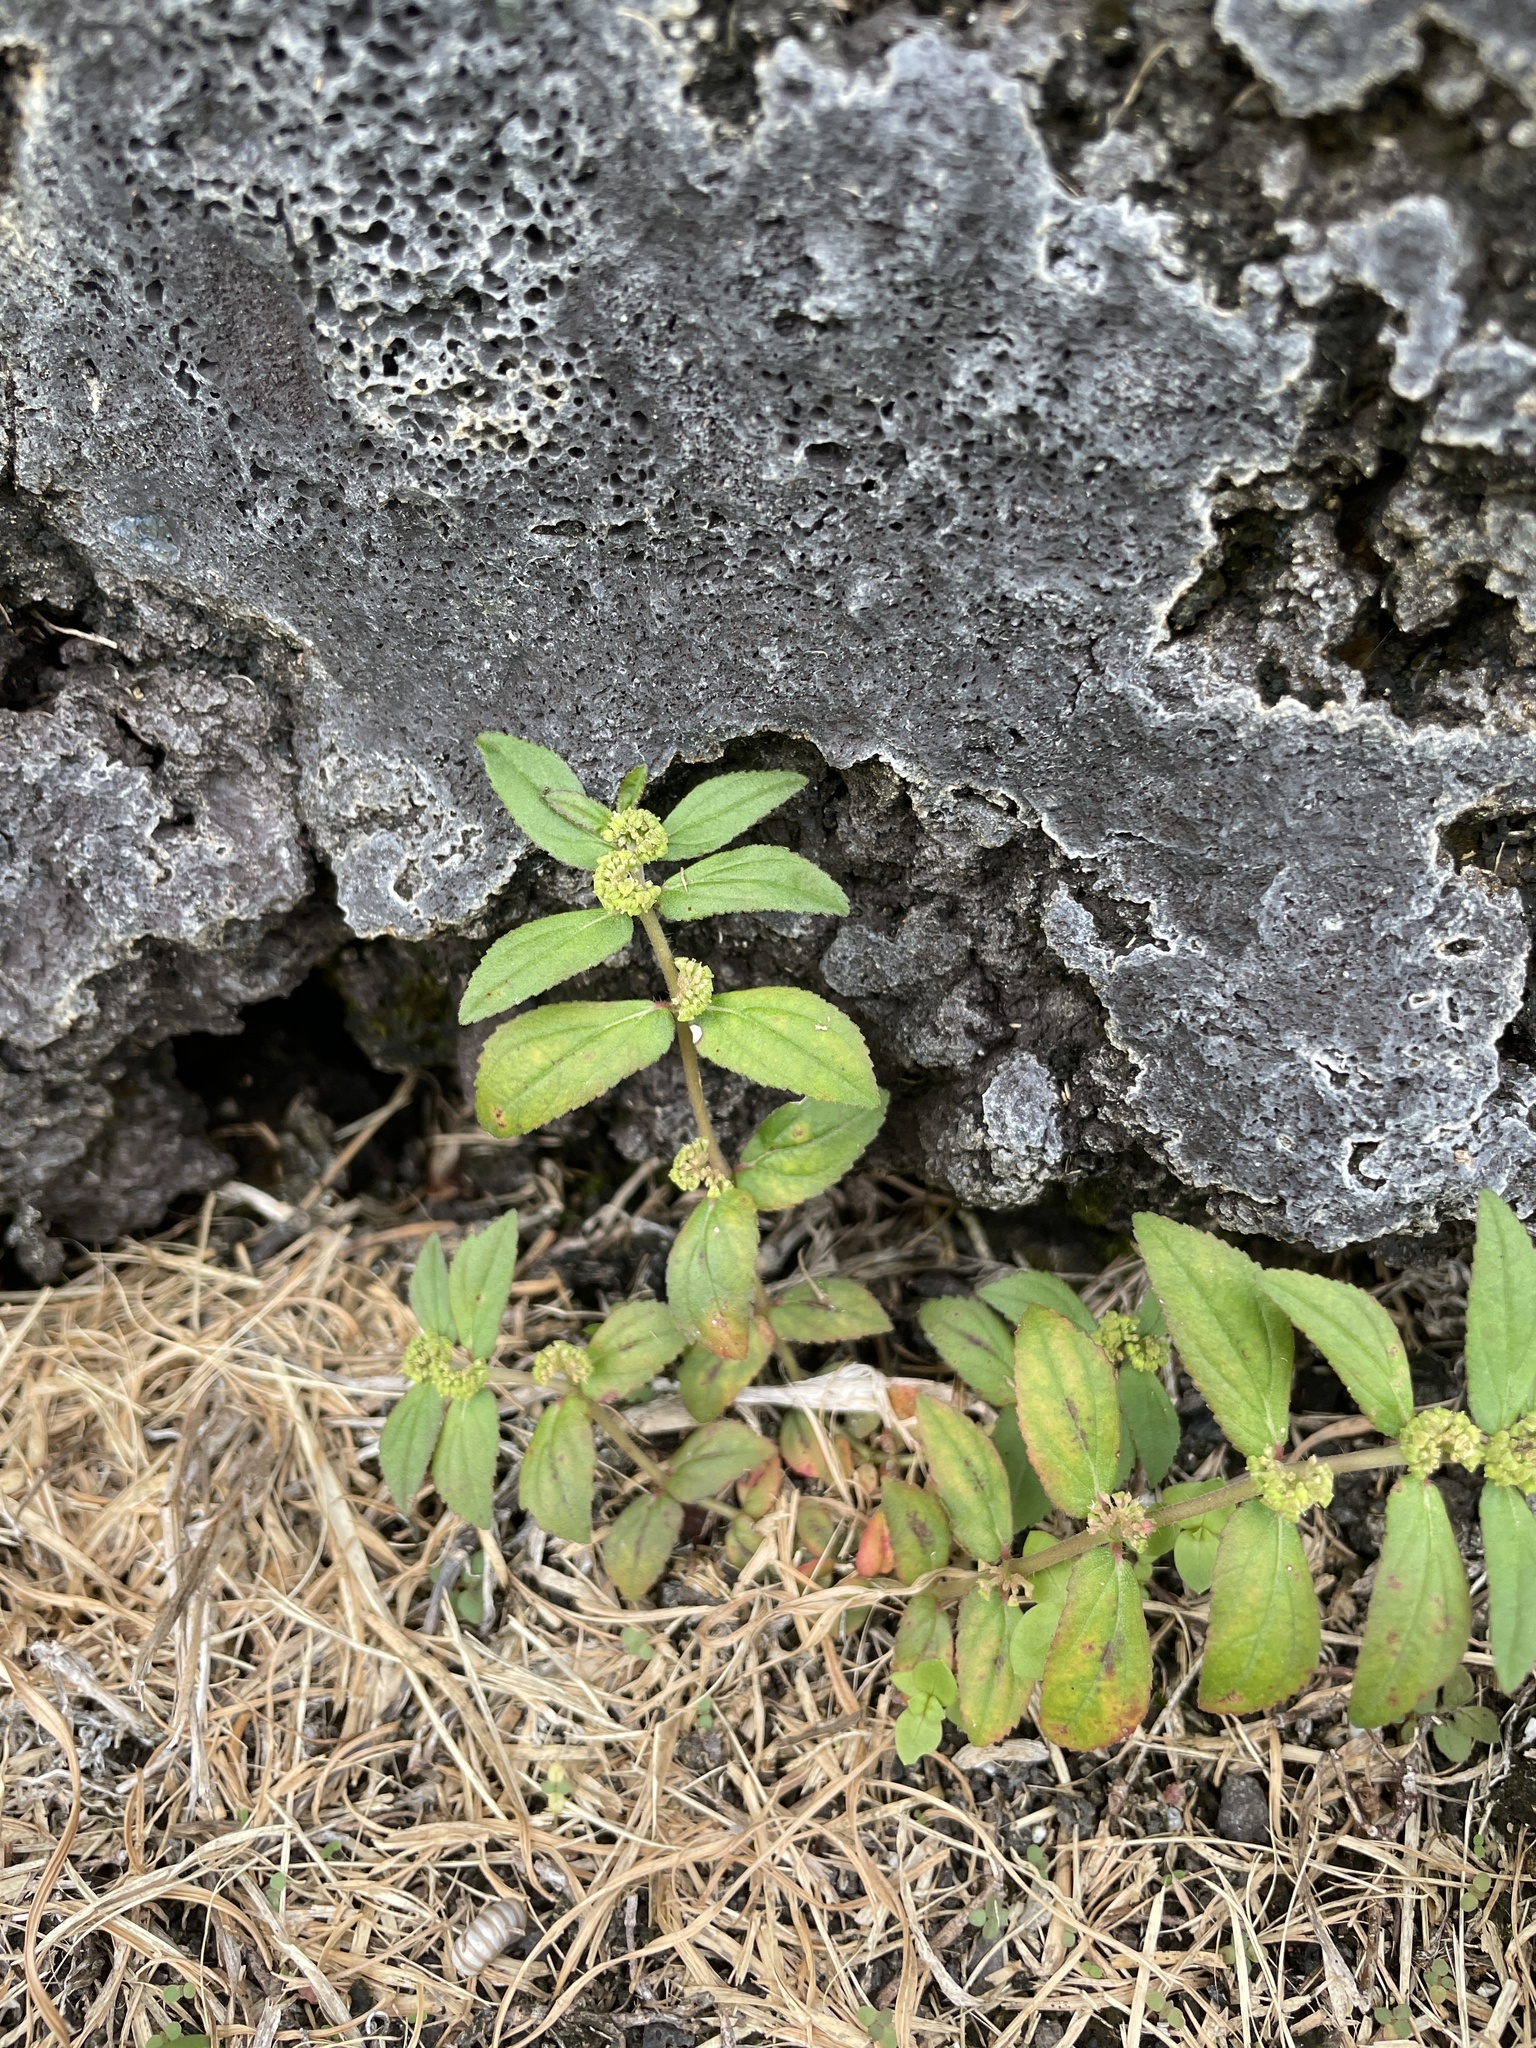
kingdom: Plantae
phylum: Tracheophyta
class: Magnoliopsida
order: Malpighiales
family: Euphorbiaceae
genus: Euphorbia
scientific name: Euphorbia hirta
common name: Pillpod sandmat
